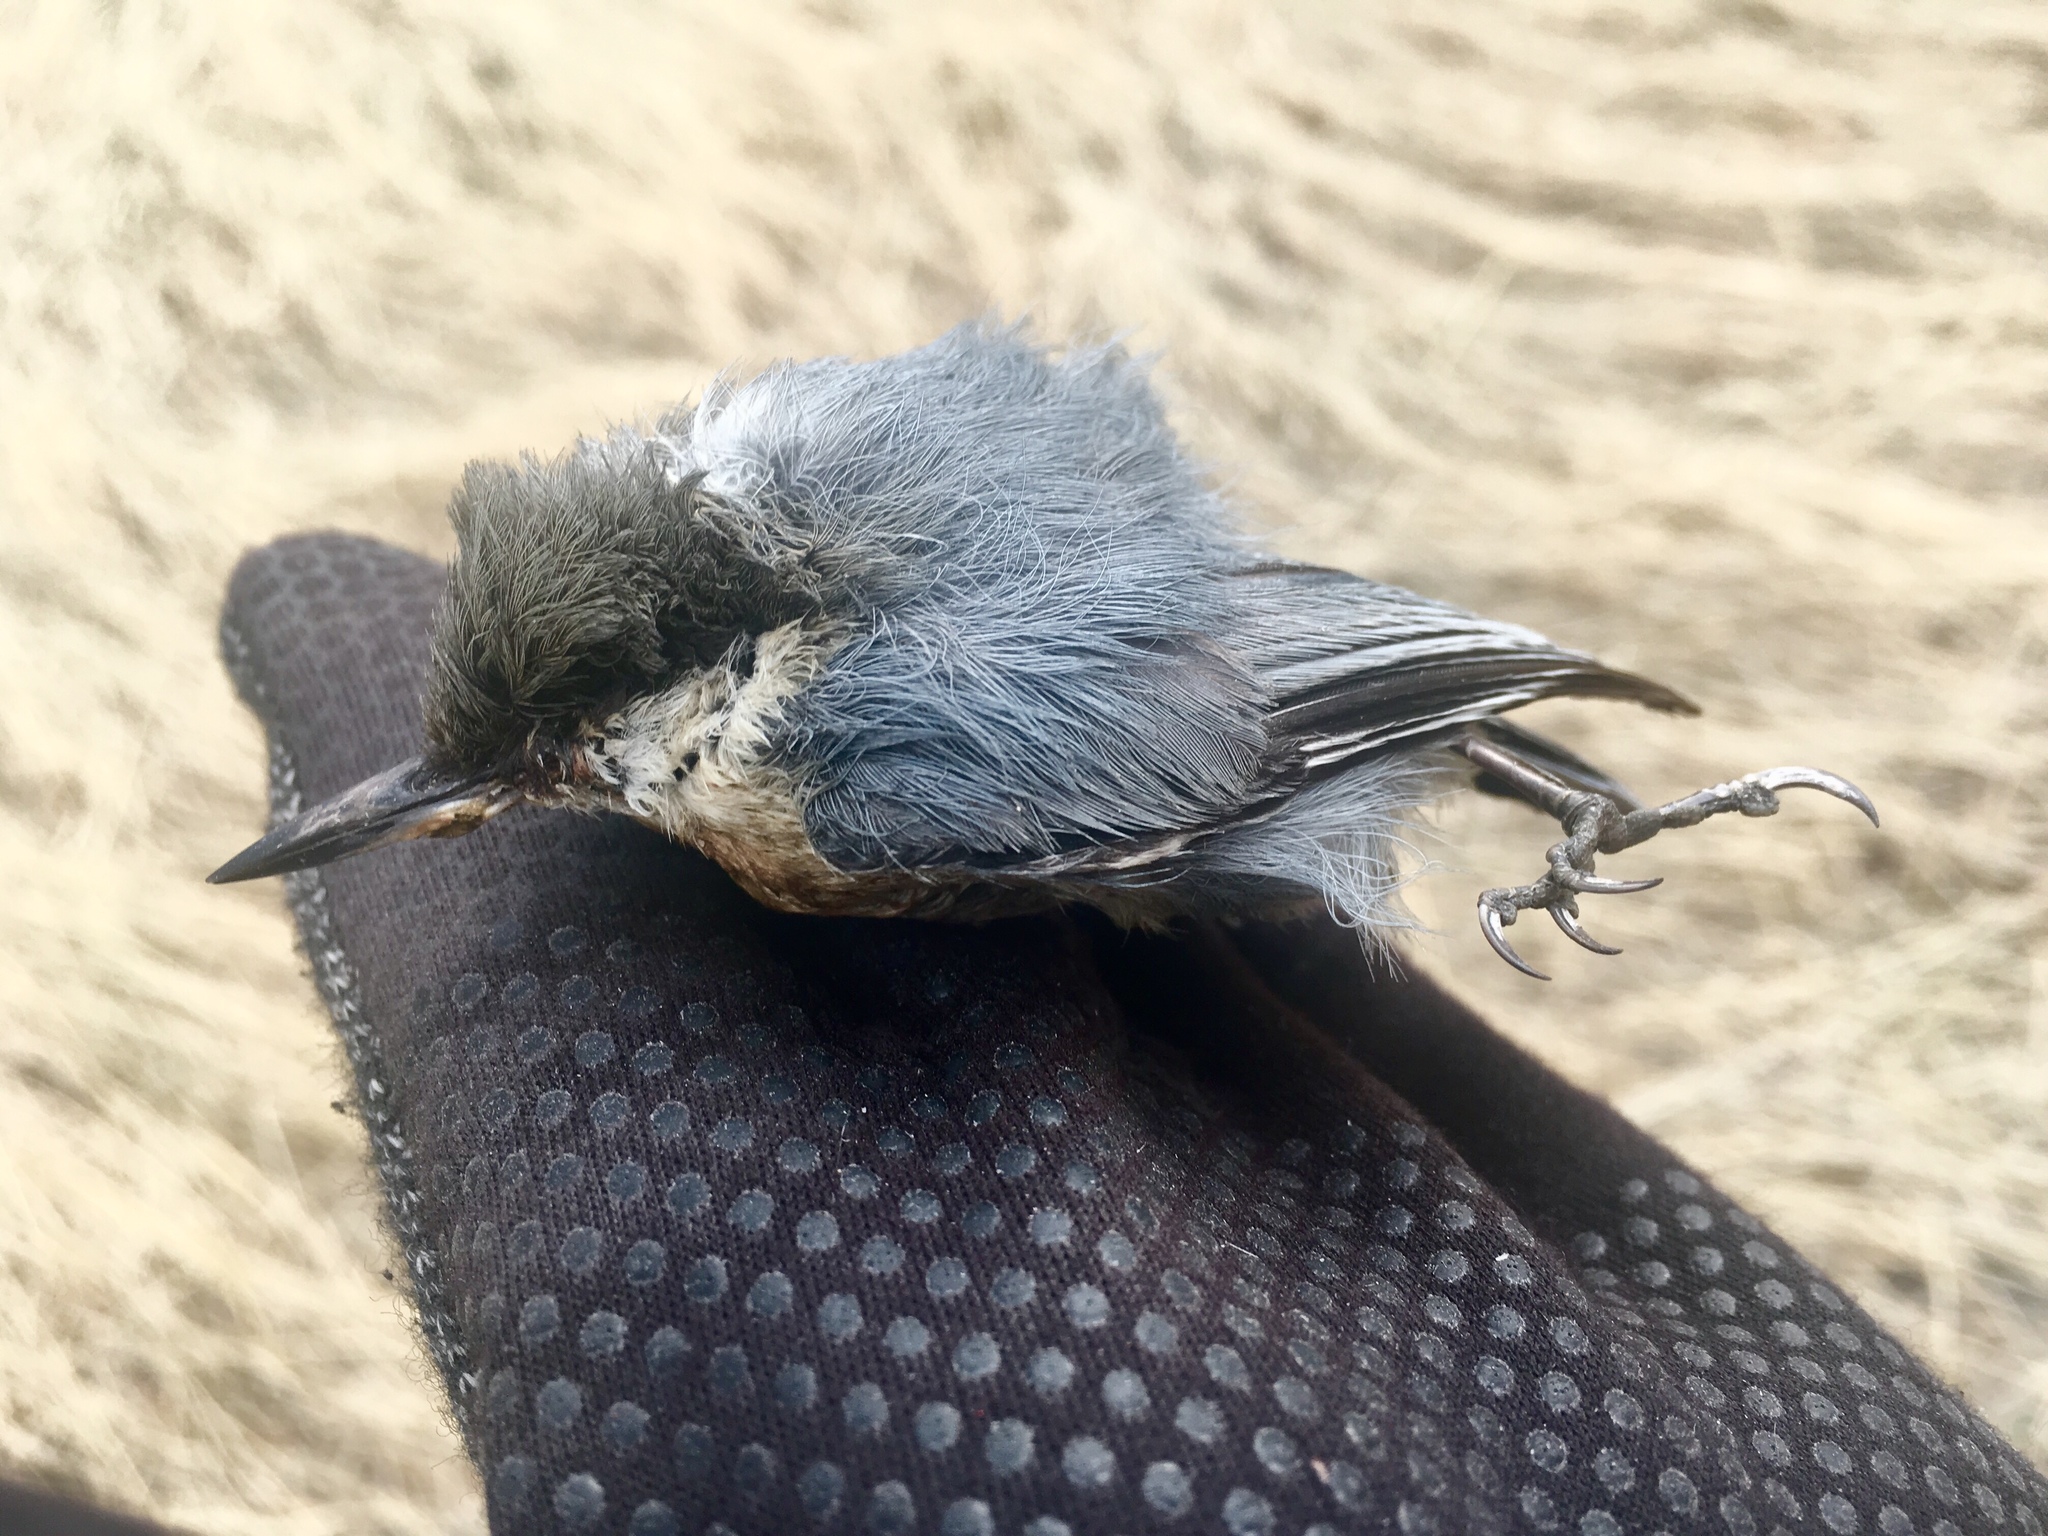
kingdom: Animalia
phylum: Chordata
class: Aves
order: Passeriformes
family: Sittidae
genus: Sitta
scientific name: Sitta pygmaea
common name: Pygmy nuthatch
